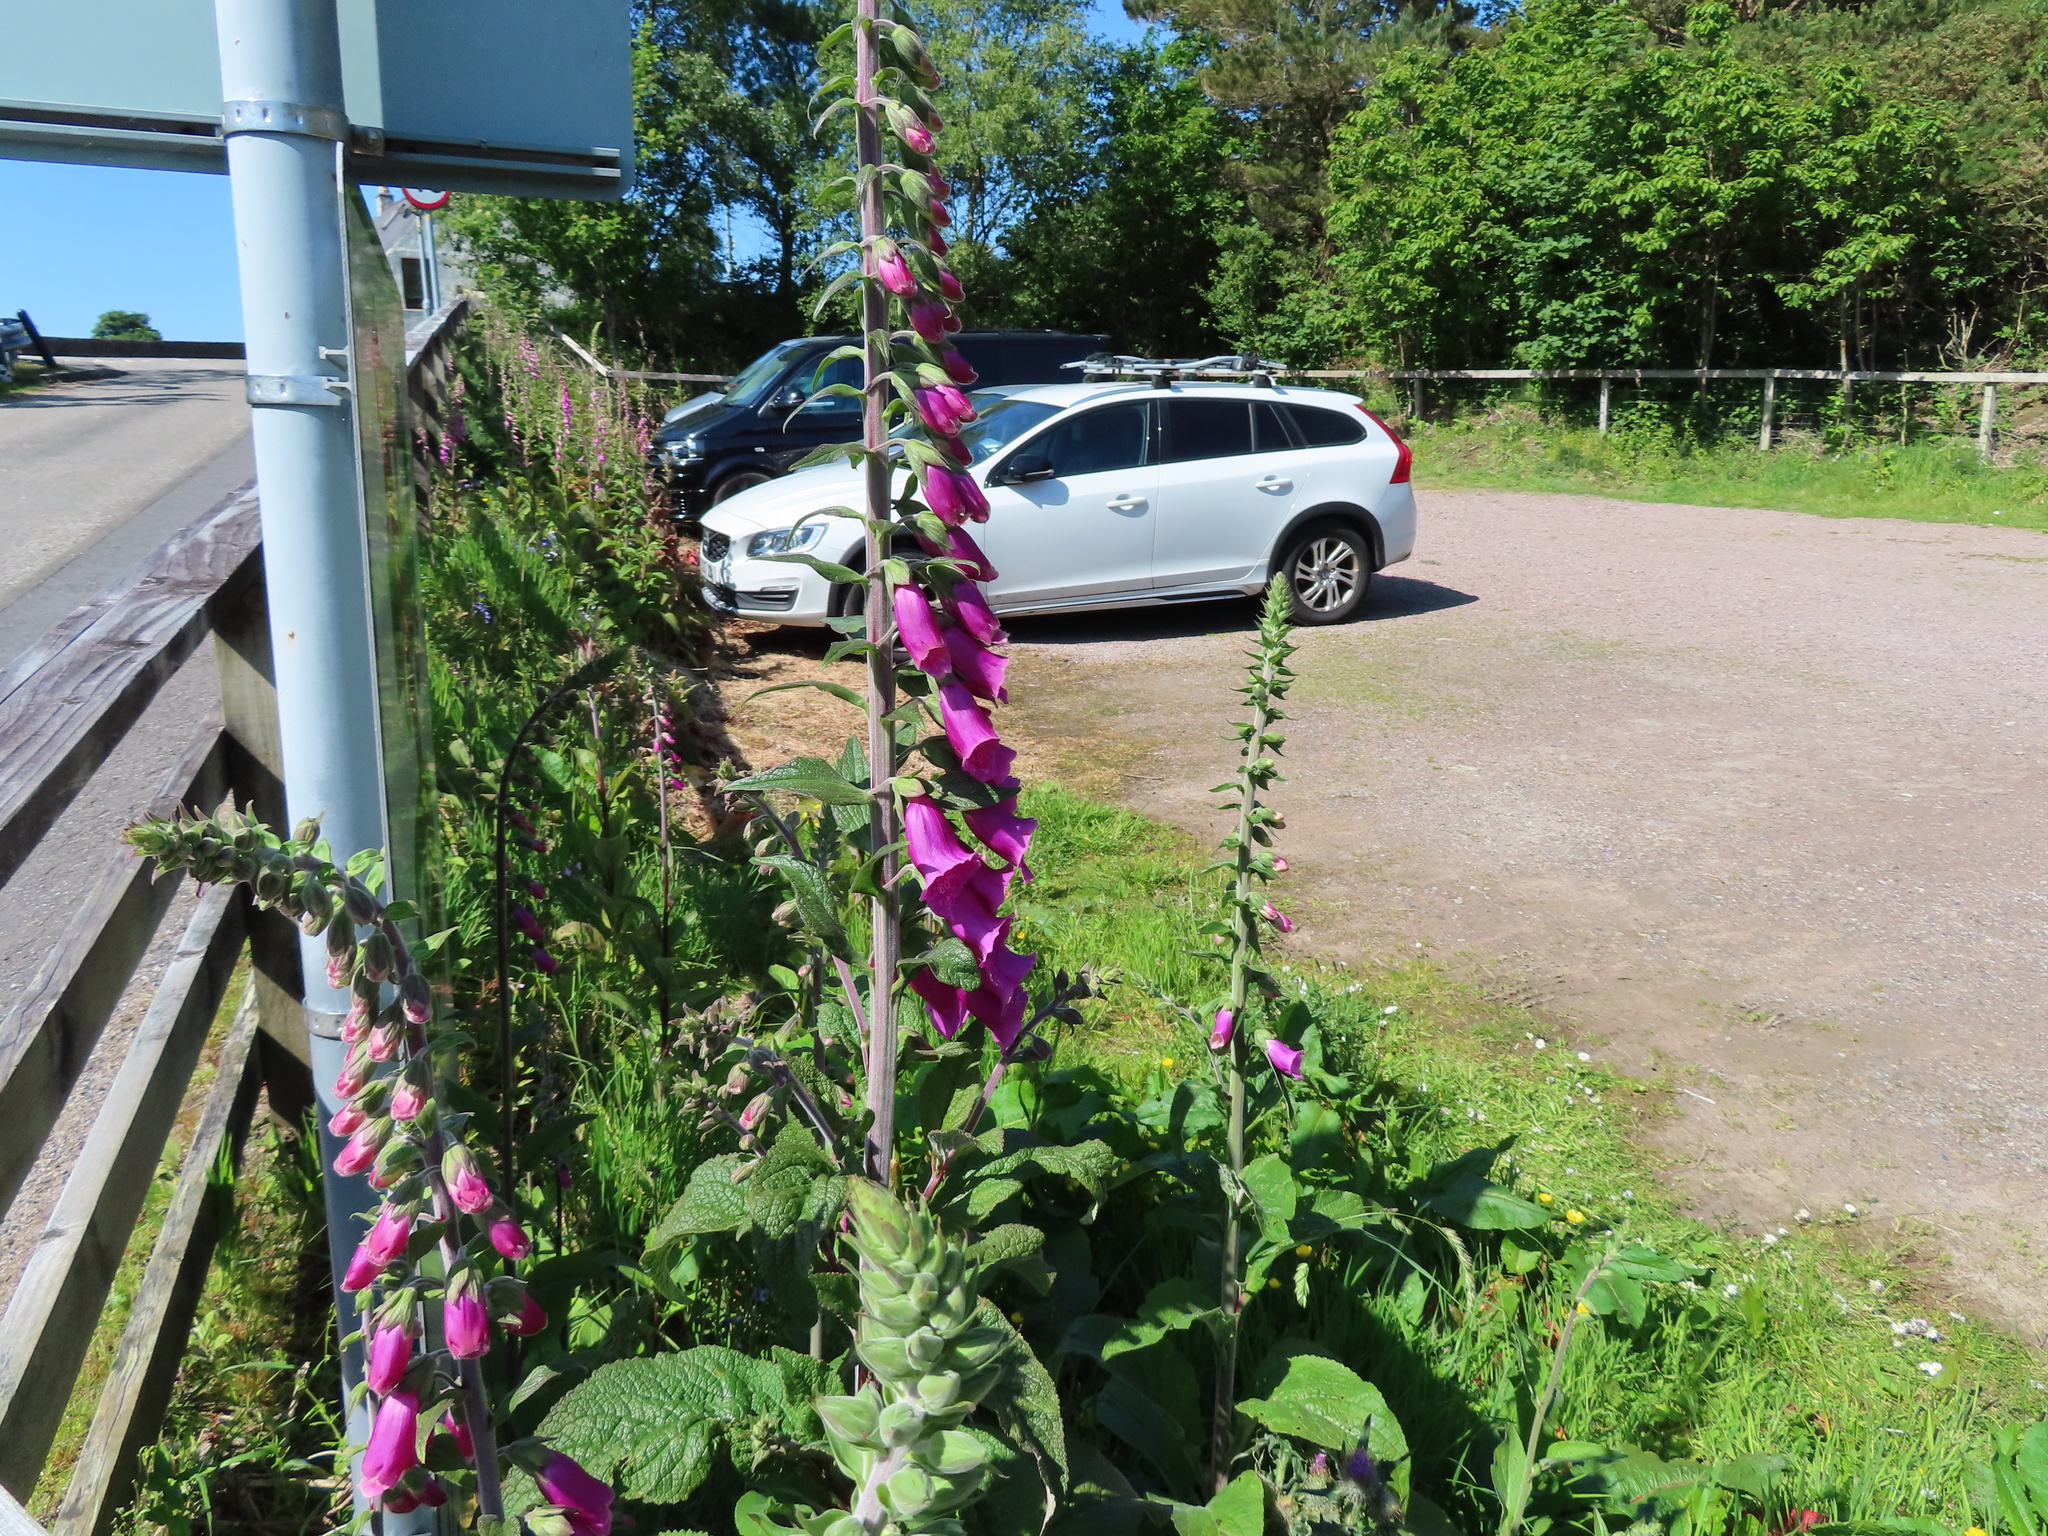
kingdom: Plantae
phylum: Tracheophyta
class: Magnoliopsida
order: Lamiales
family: Plantaginaceae
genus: Digitalis
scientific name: Digitalis purpurea
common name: Foxglove
